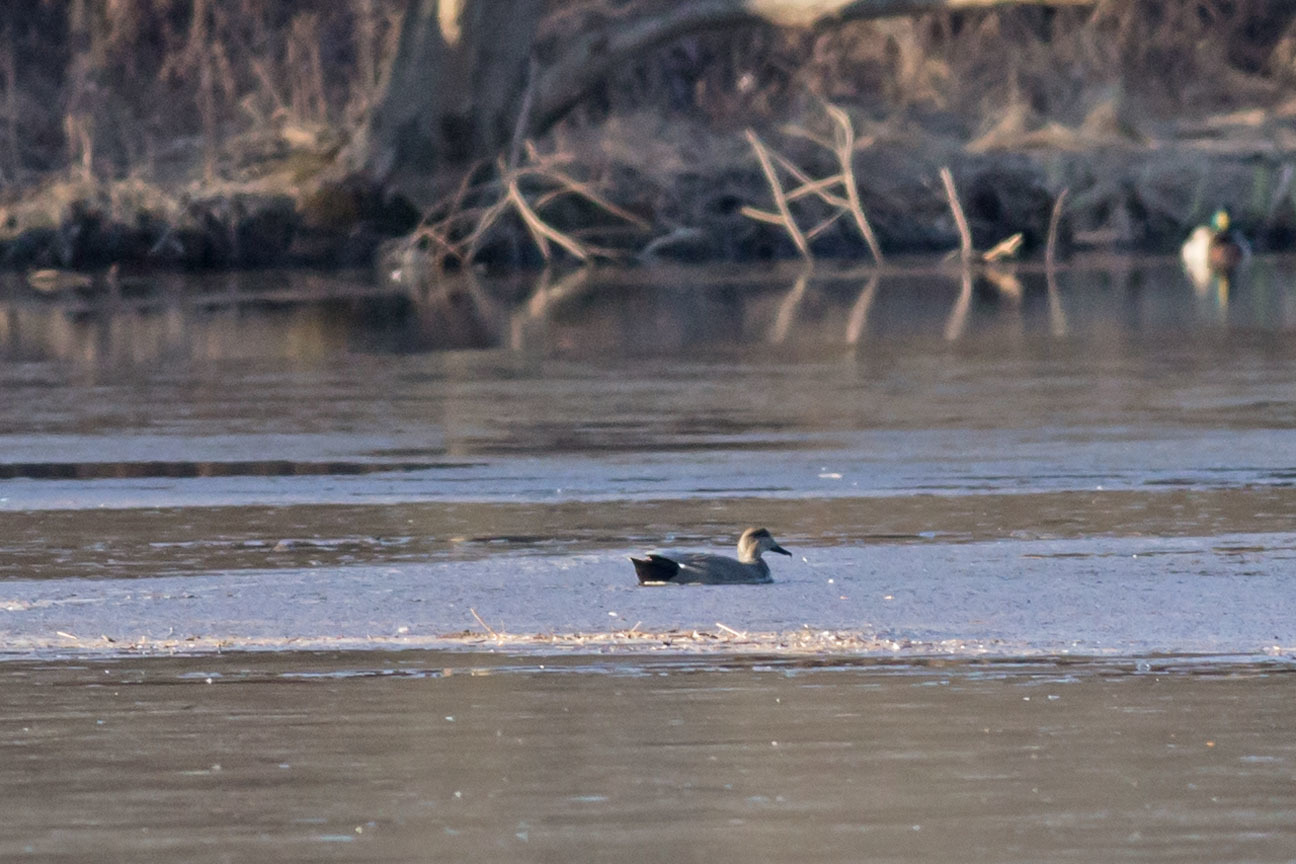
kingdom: Animalia
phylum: Chordata
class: Aves
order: Anseriformes
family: Anatidae
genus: Mareca
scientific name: Mareca strepera
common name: Gadwall
